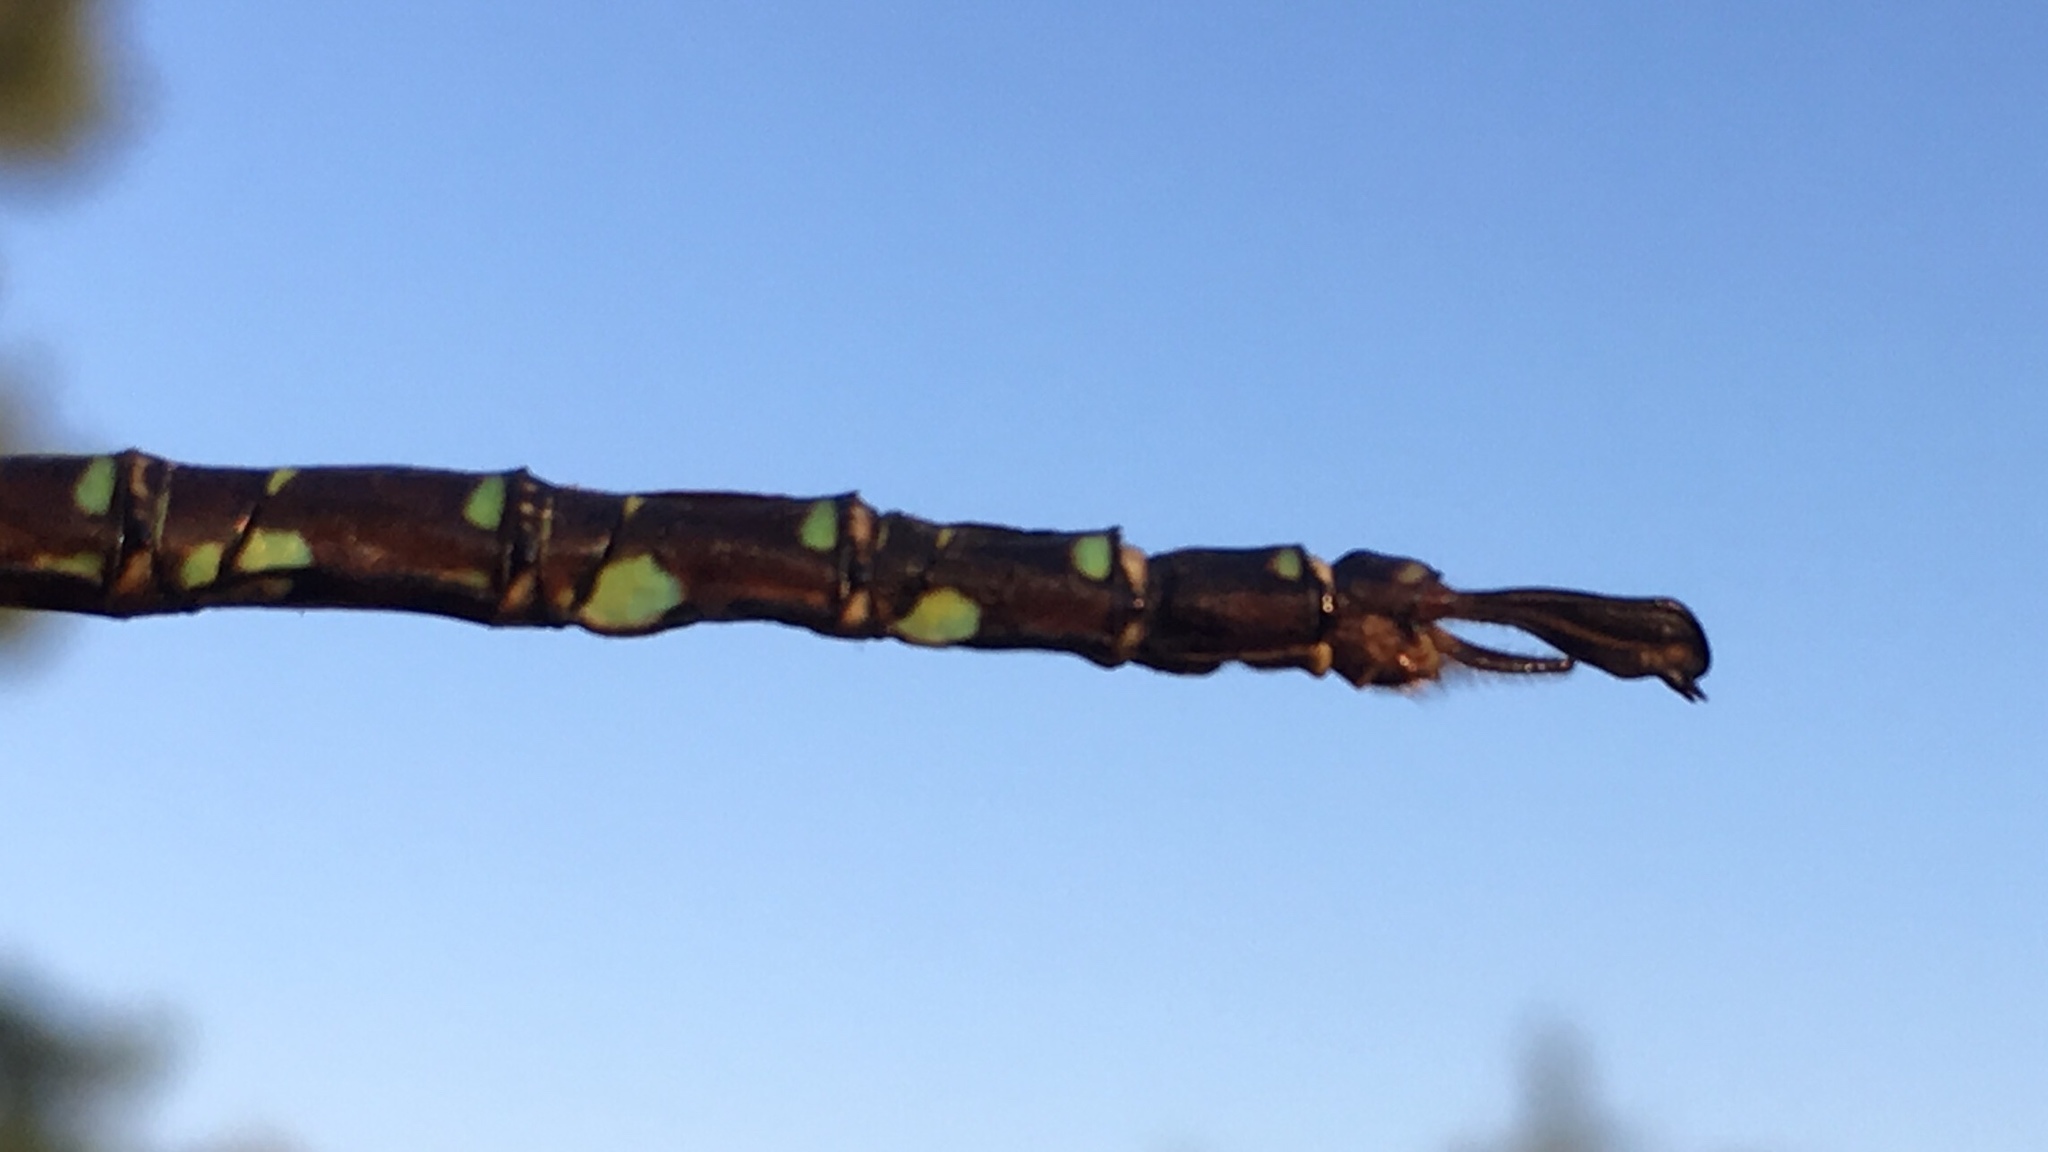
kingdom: Animalia
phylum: Arthropoda
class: Insecta
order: Odonata
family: Aeshnidae
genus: Aeshna
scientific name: Aeshna umbrosa
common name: Shadow darner
